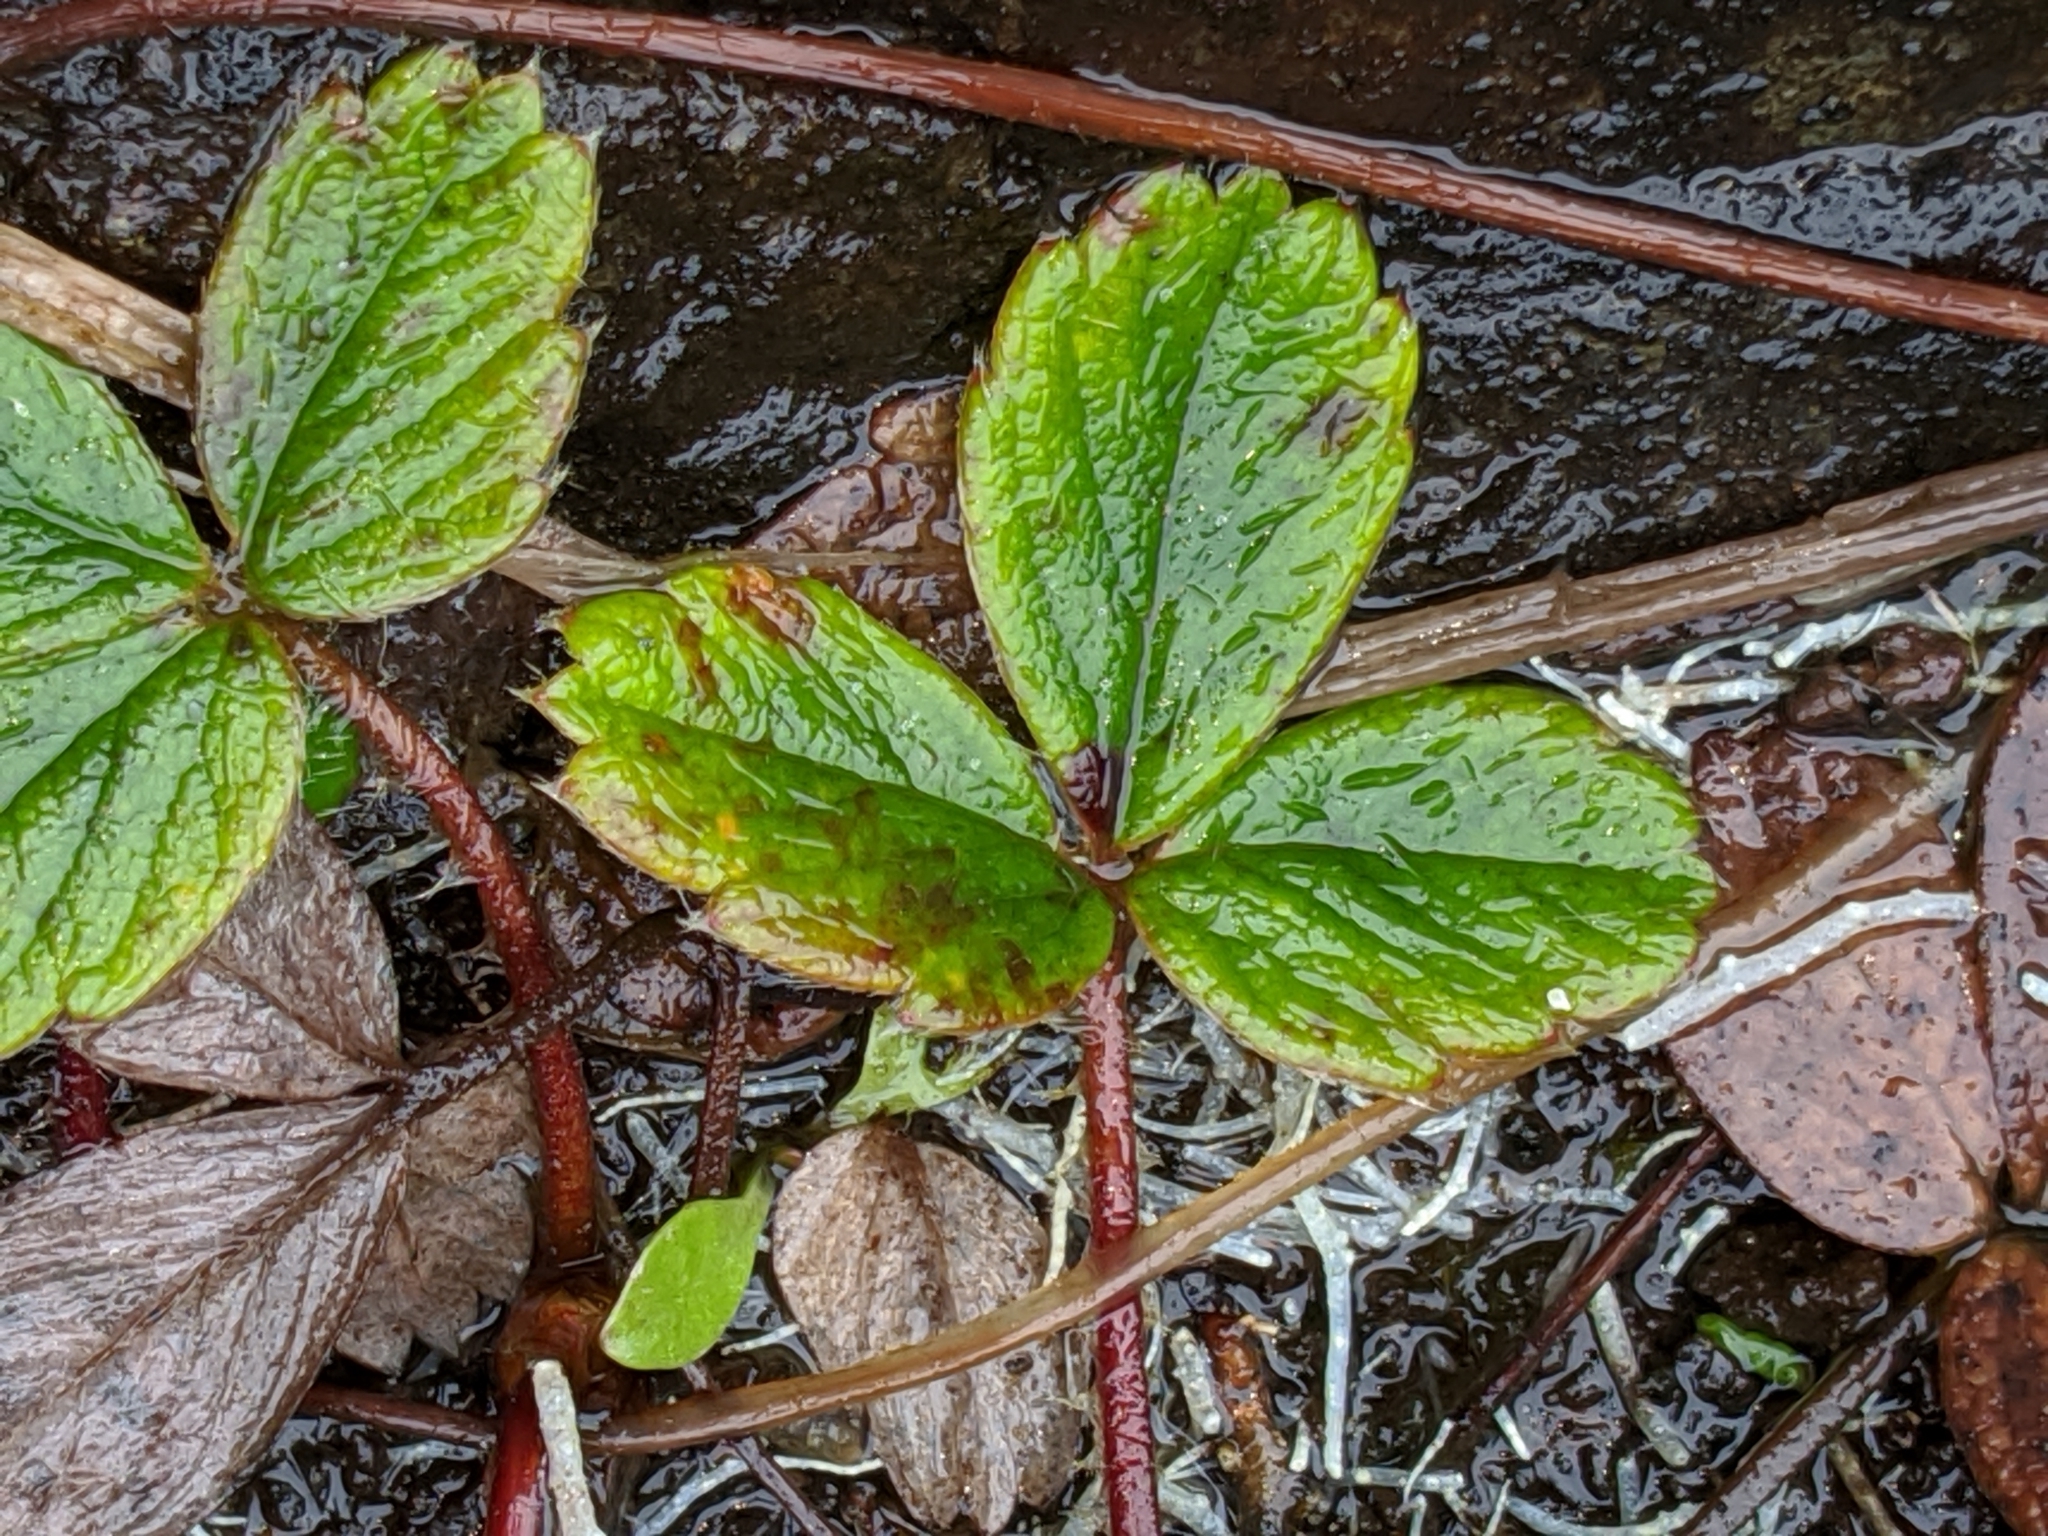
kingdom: Plantae
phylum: Tracheophyta
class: Magnoliopsida
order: Rosales
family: Rosaceae
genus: Fragaria
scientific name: Fragaria chiloensis
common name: Beach strawberry
